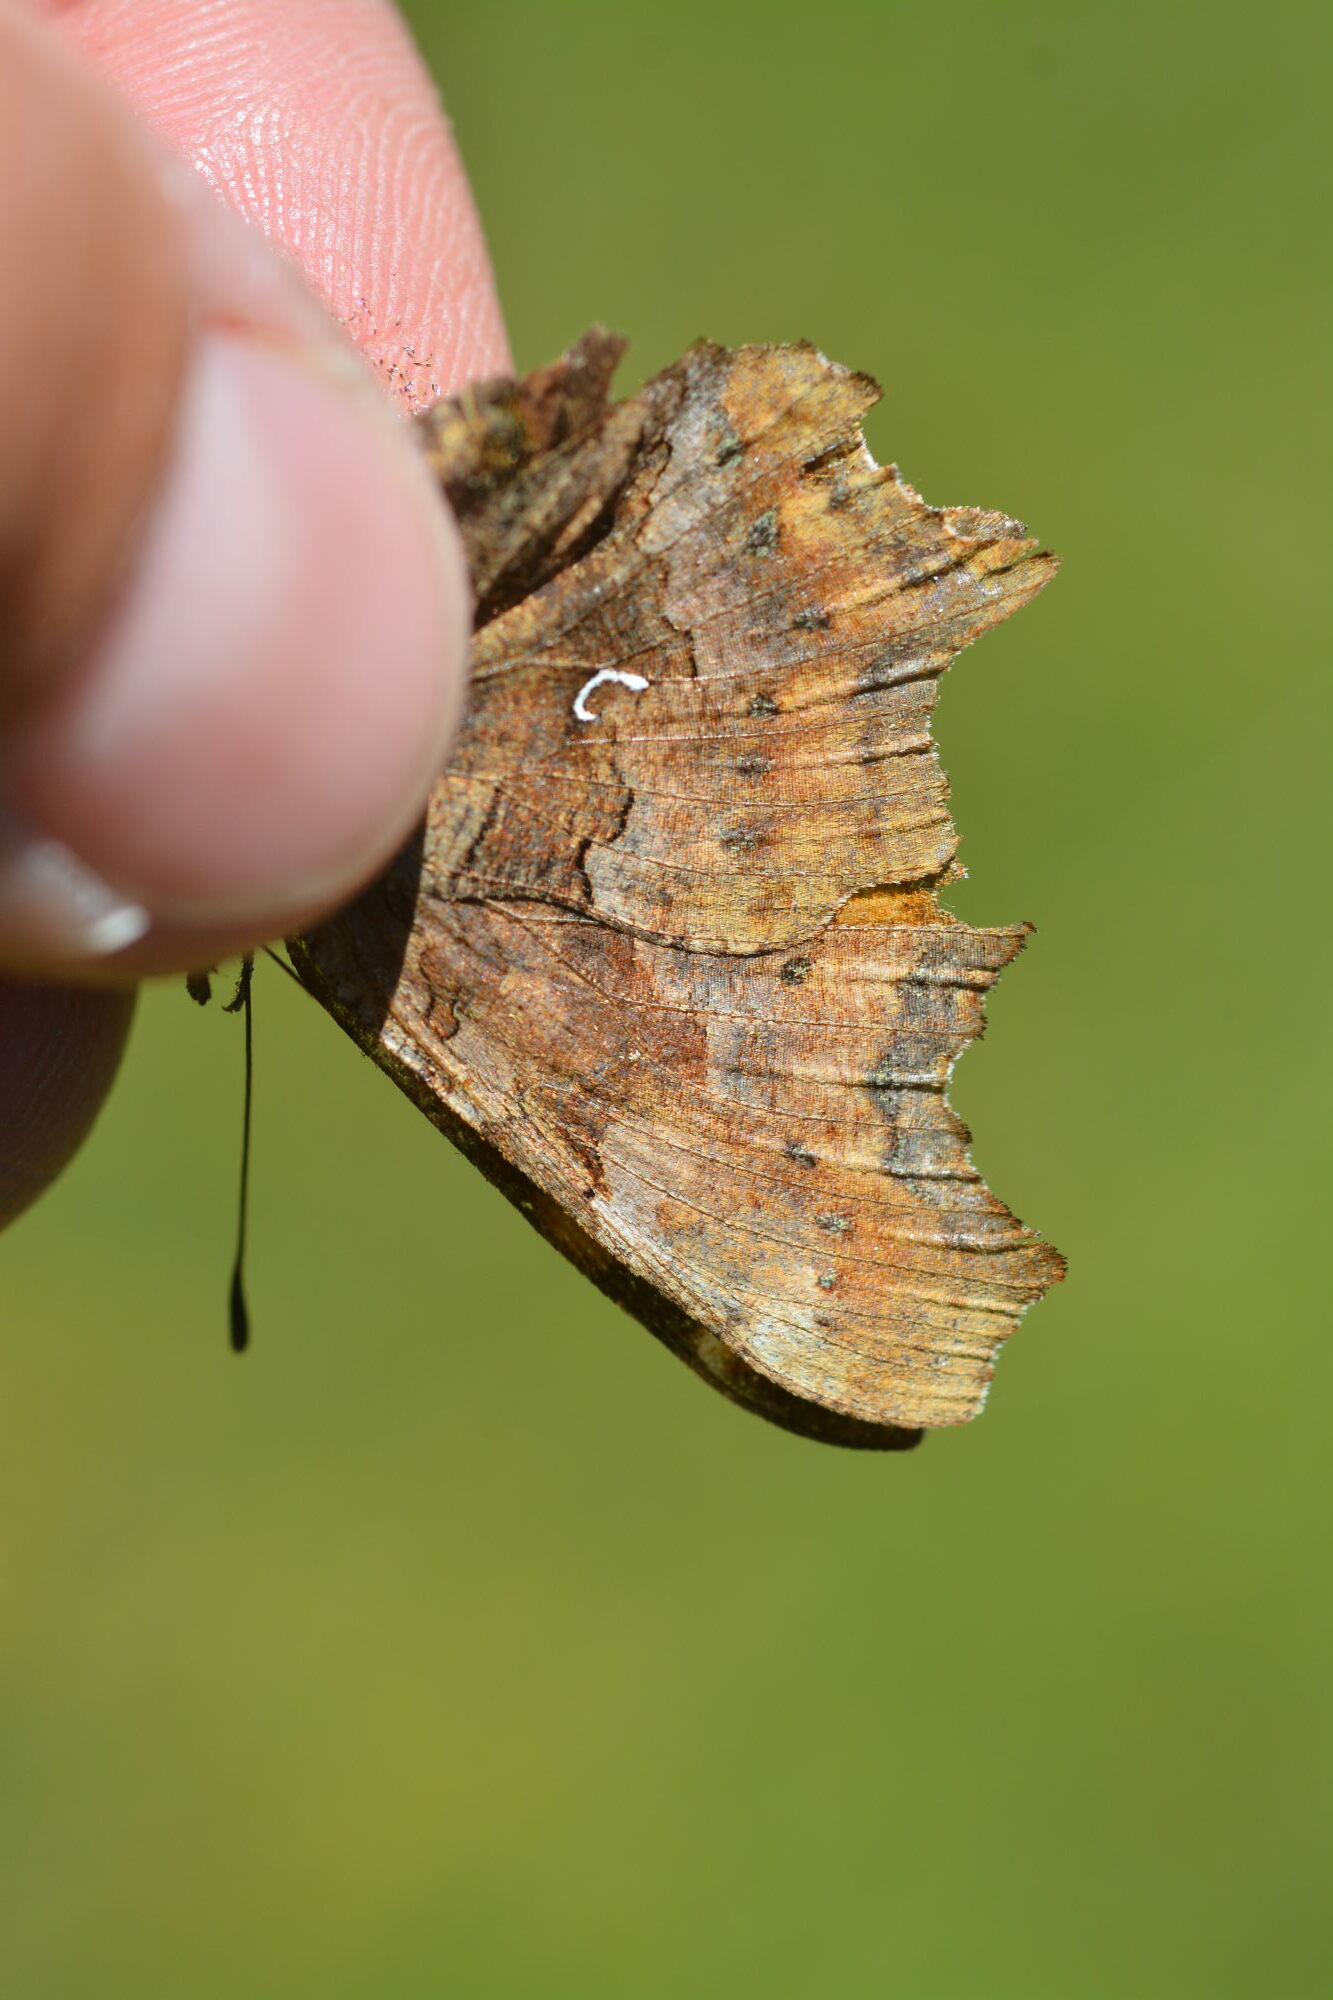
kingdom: Animalia
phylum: Arthropoda
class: Insecta
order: Lepidoptera
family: Nymphalidae
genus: Polygonia
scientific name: Polygonia c-album
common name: Comma
